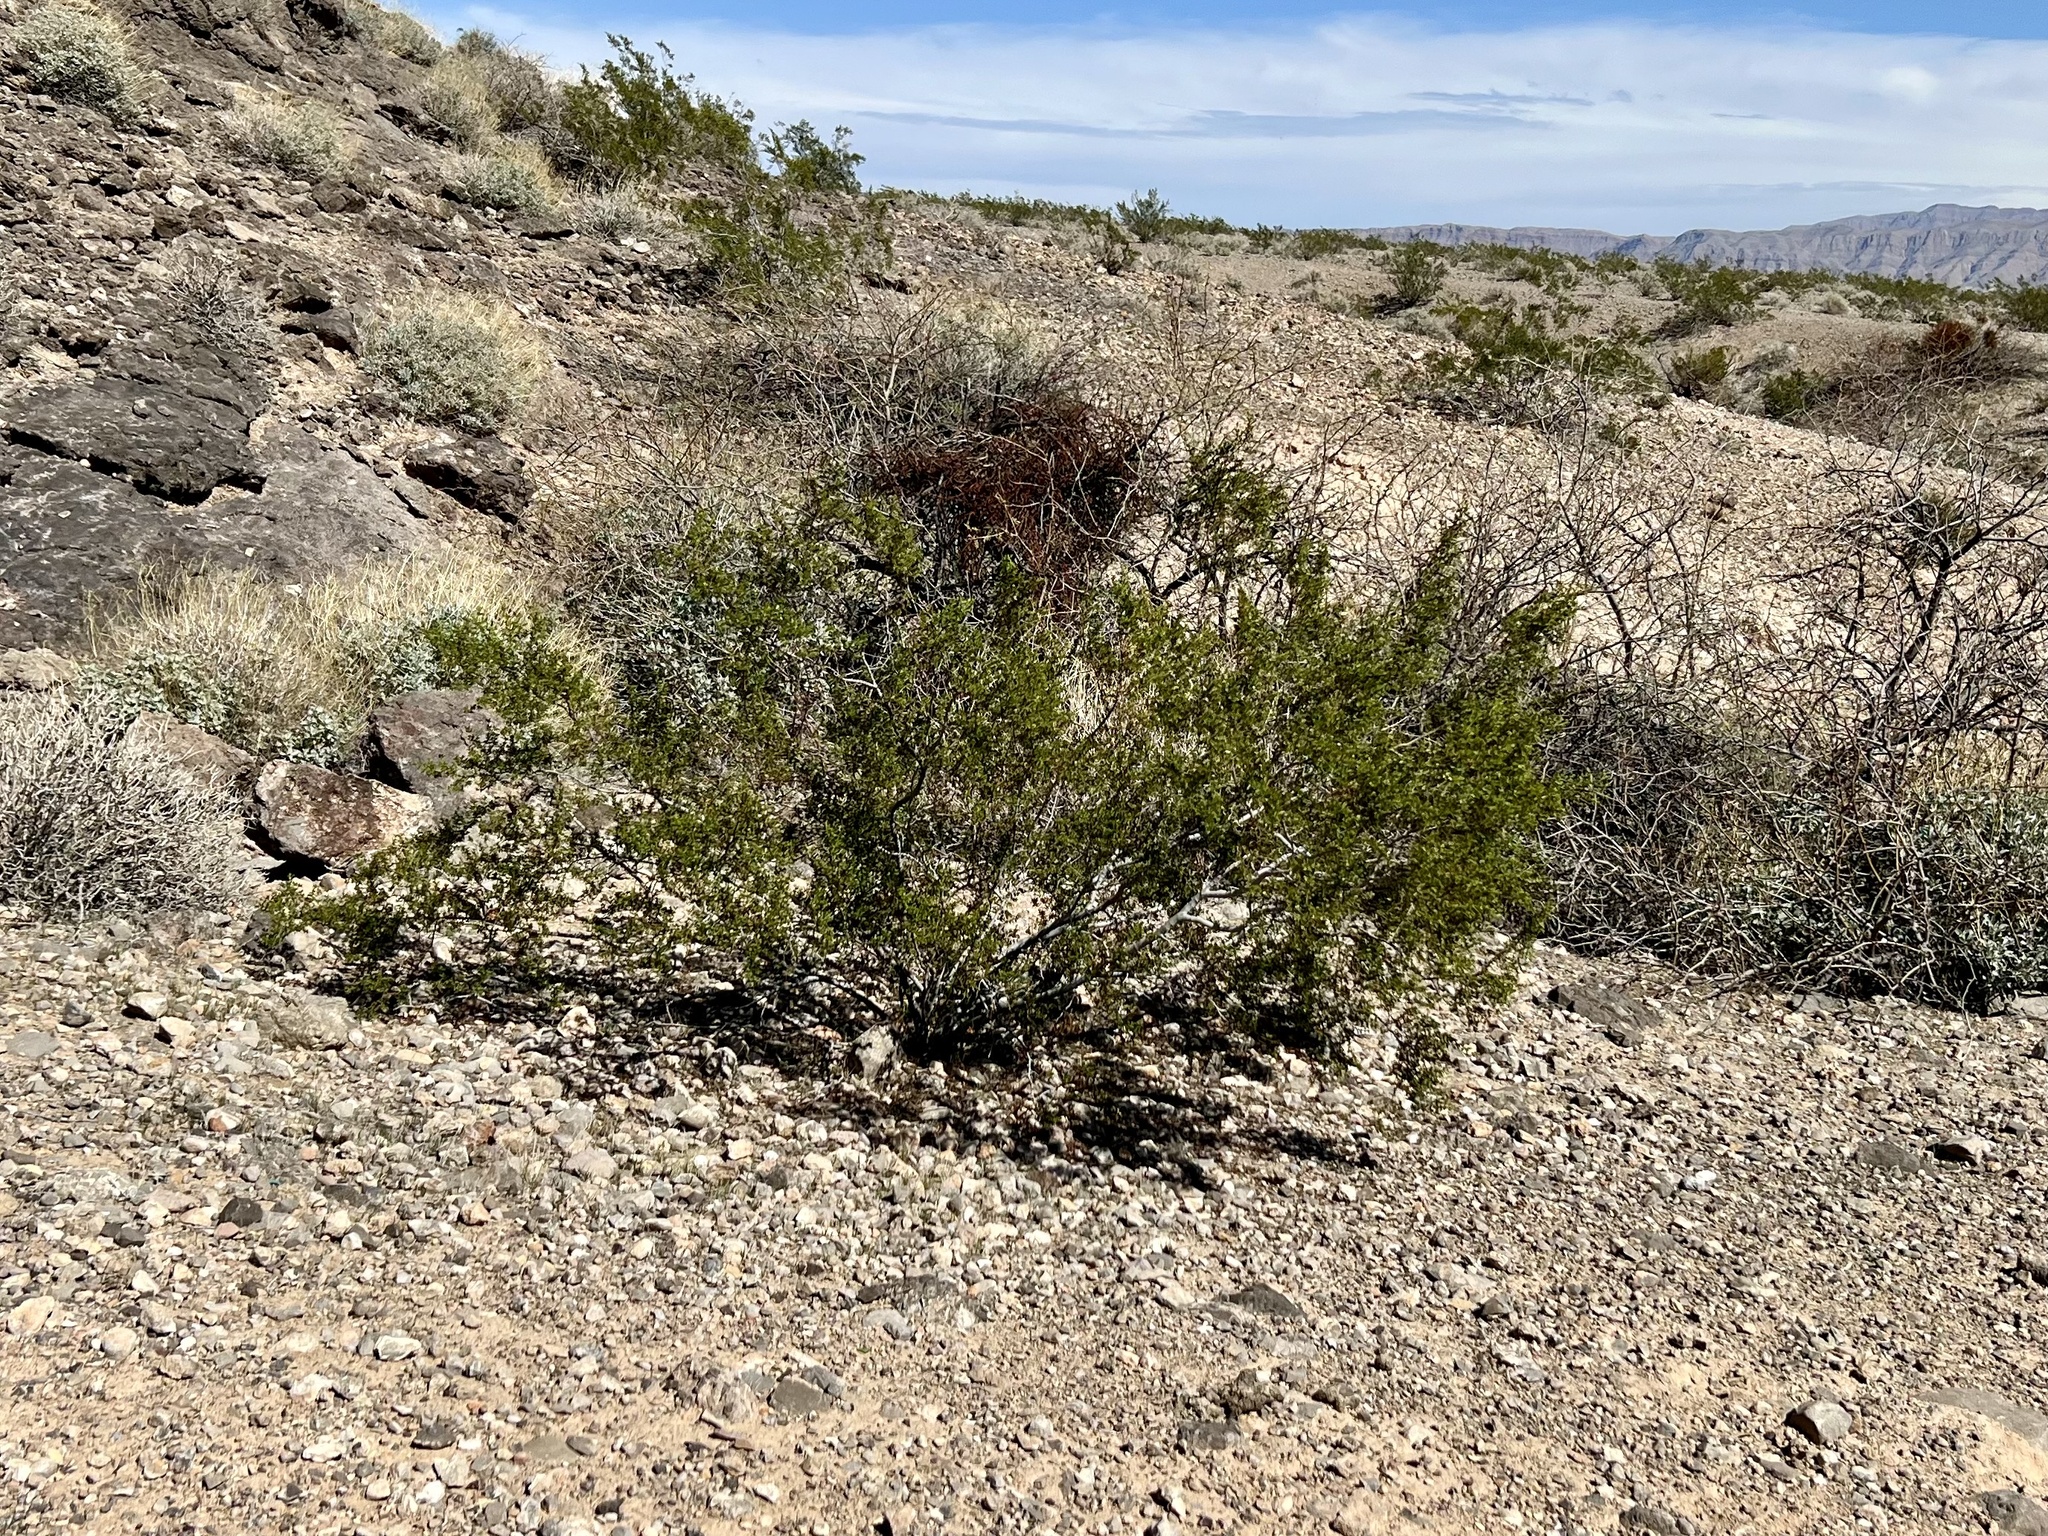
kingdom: Plantae
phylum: Tracheophyta
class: Magnoliopsida
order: Zygophyllales
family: Zygophyllaceae
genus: Larrea
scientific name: Larrea tridentata
